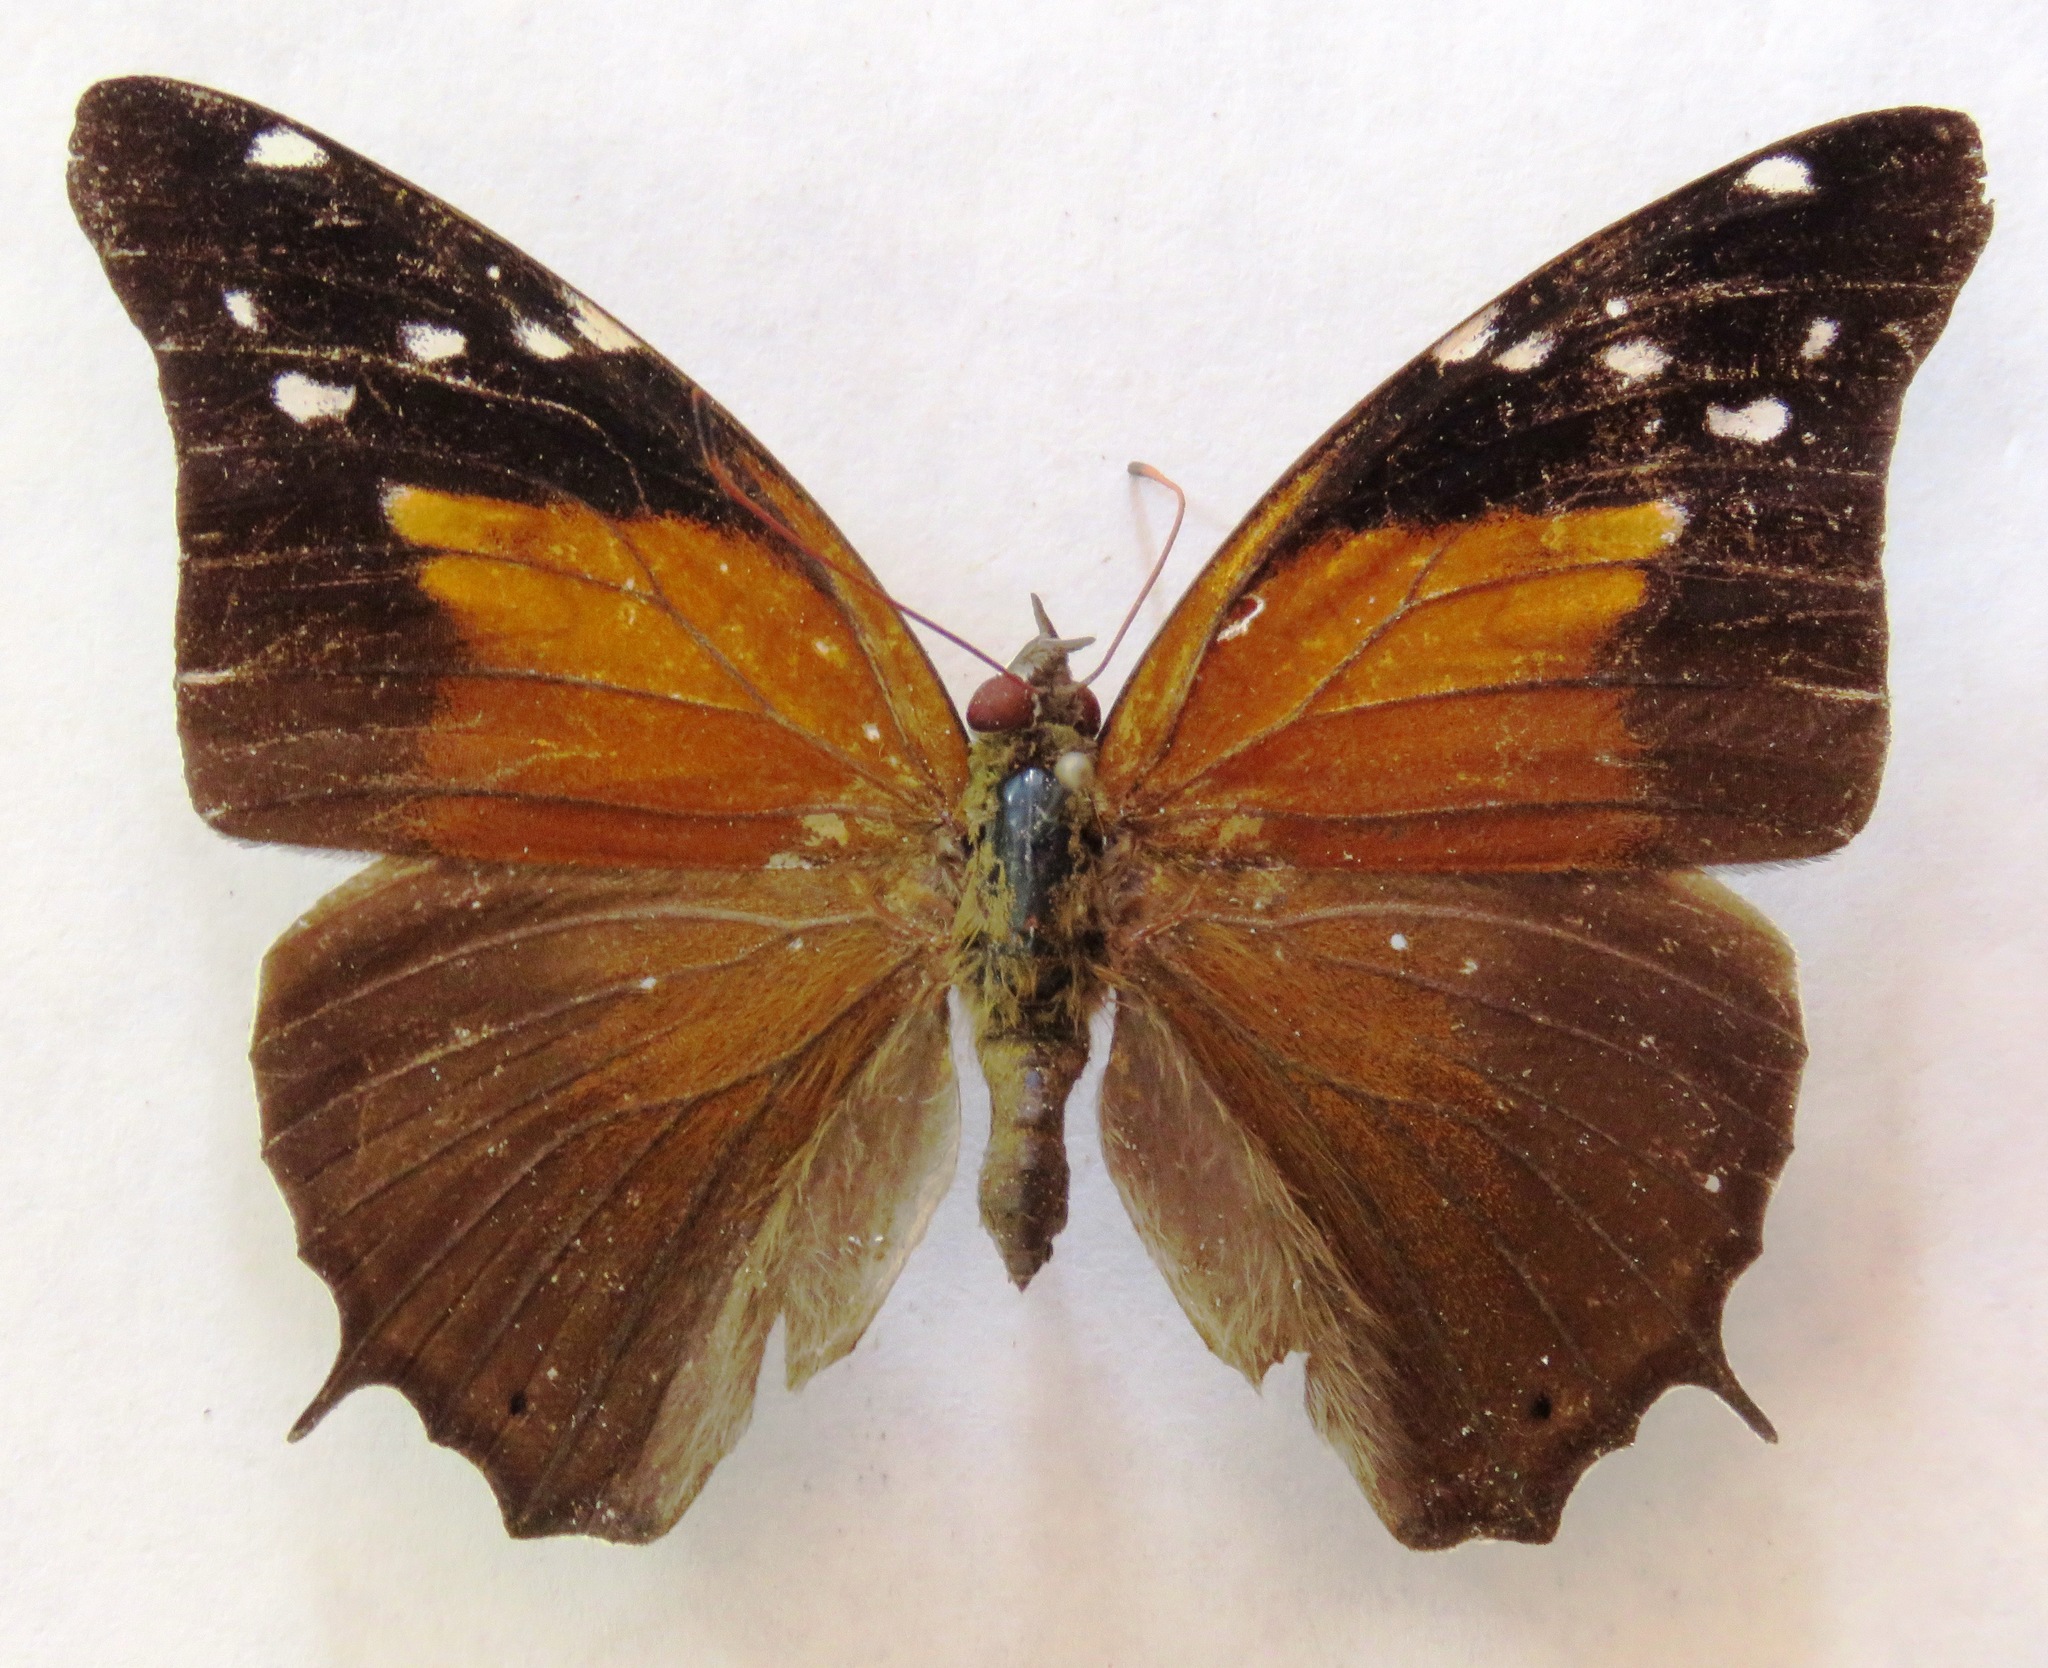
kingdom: Animalia
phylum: Arthropoda
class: Insecta
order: Lepidoptera
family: Nymphalidae
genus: Coea
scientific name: Coea acheronta
